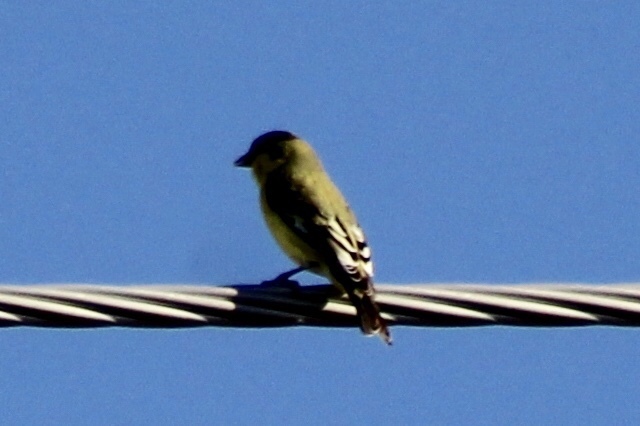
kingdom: Animalia
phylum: Chordata
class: Aves
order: Passeriformes
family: Fringillidae
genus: Spinus
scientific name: Spinus psaltria
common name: Lesser goldfinch
